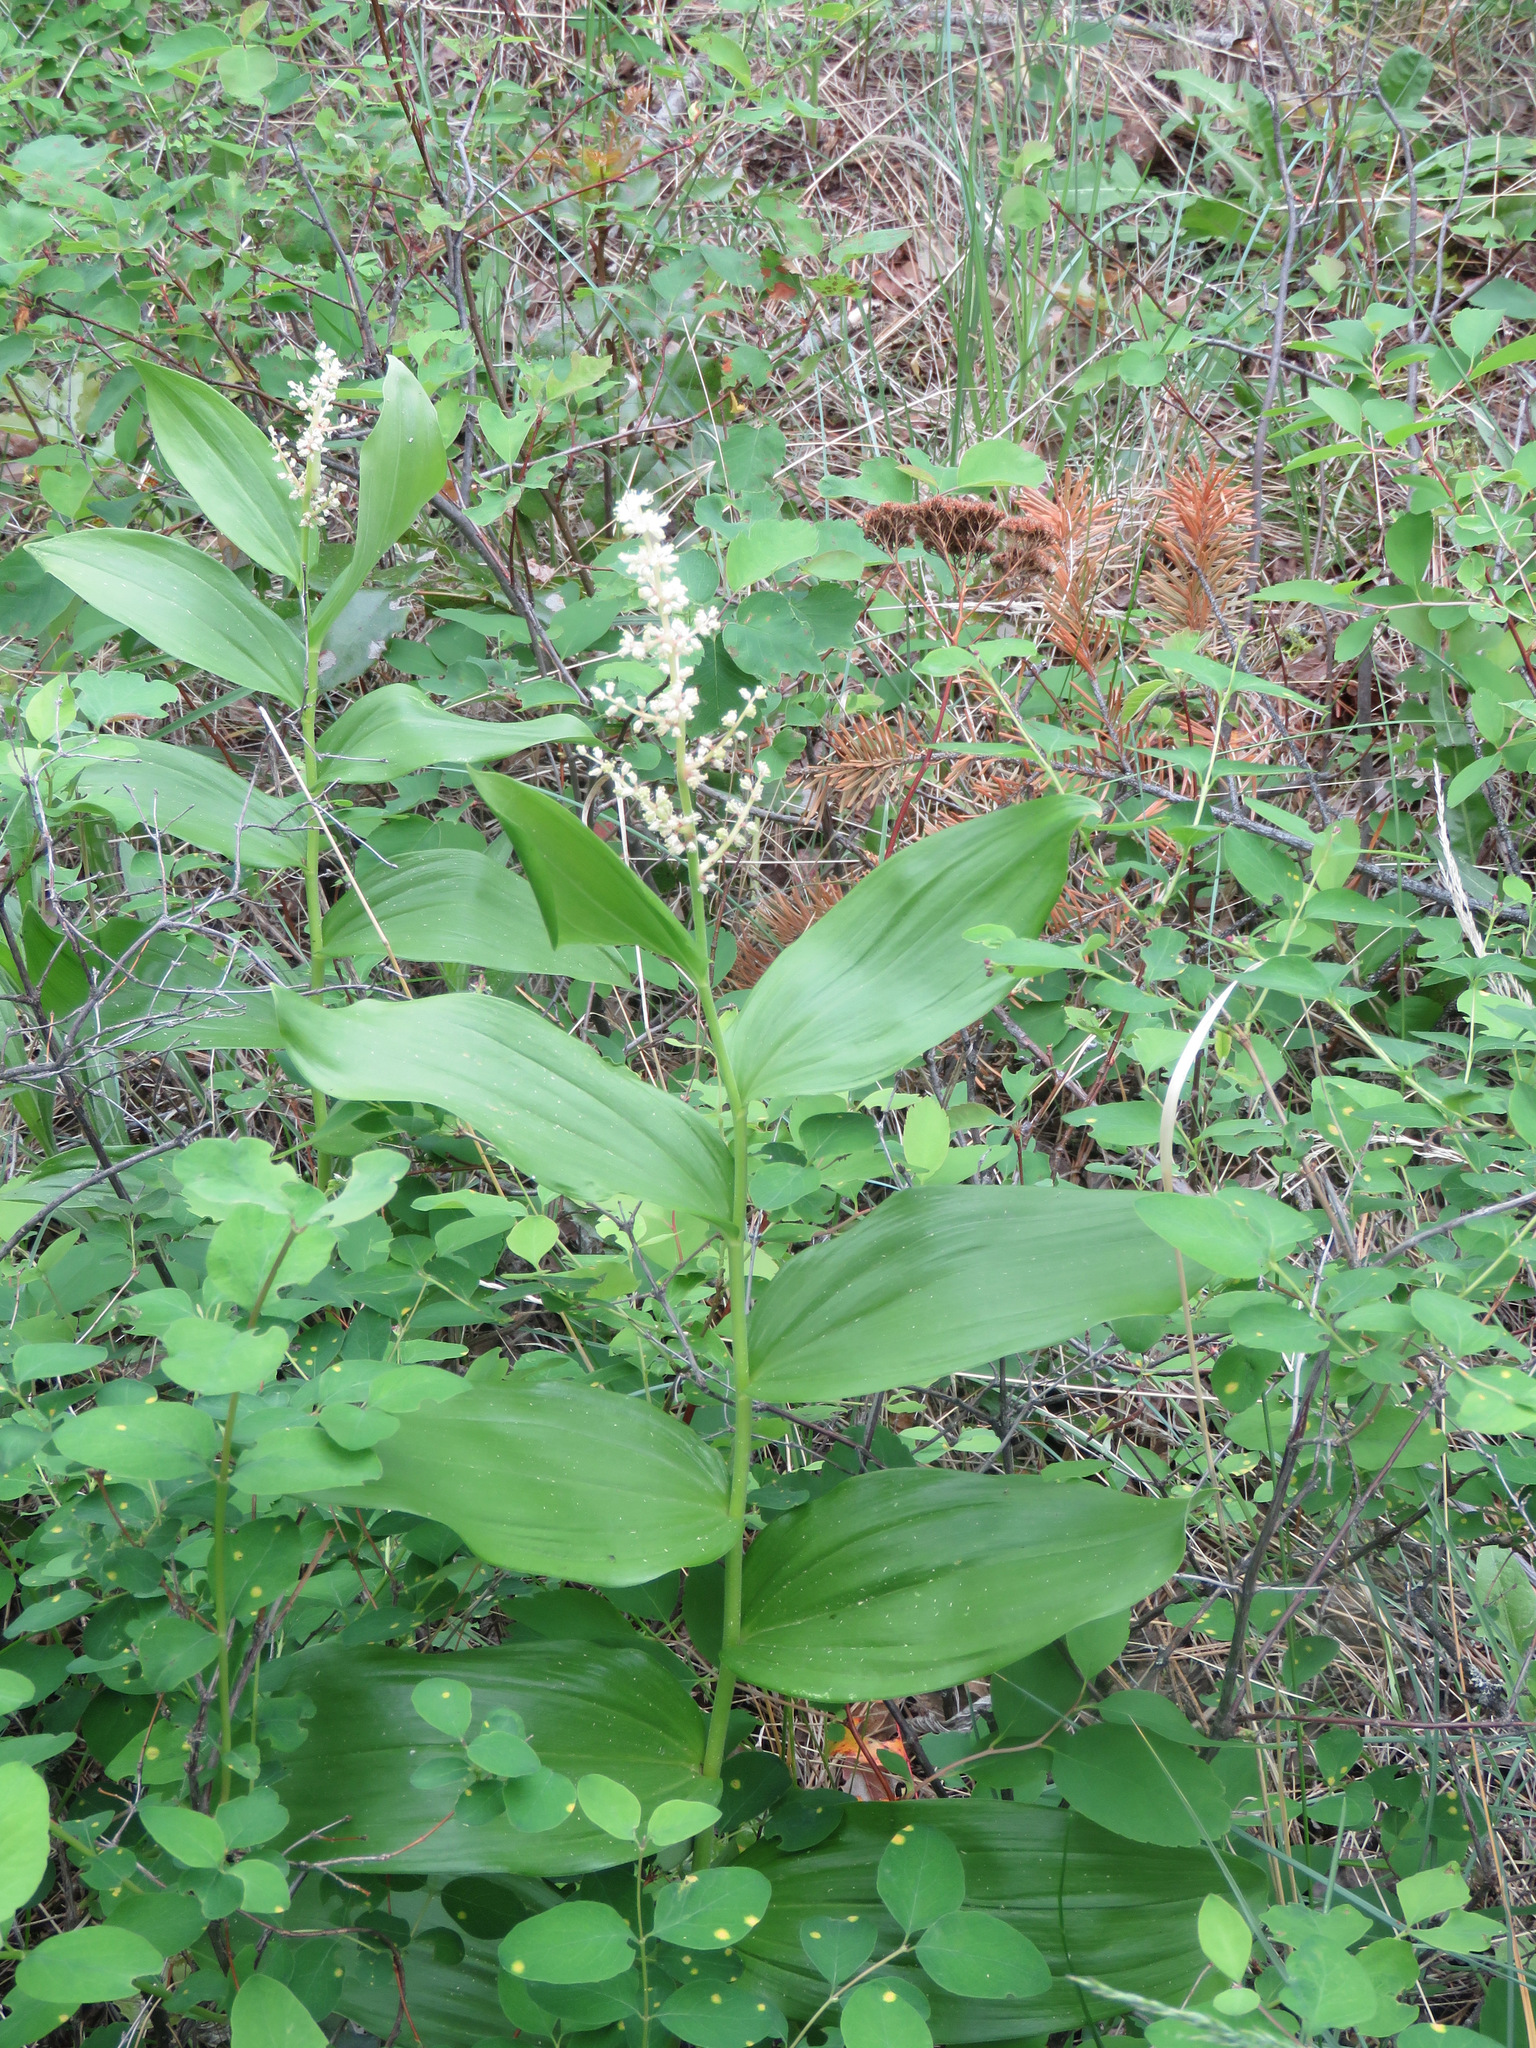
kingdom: Plantae
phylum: Tracheophyta
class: Liliopsida
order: Asparagales
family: Asparagaceae
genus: Maianthemum
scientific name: Maianthemum racemosum
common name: False spikenard
